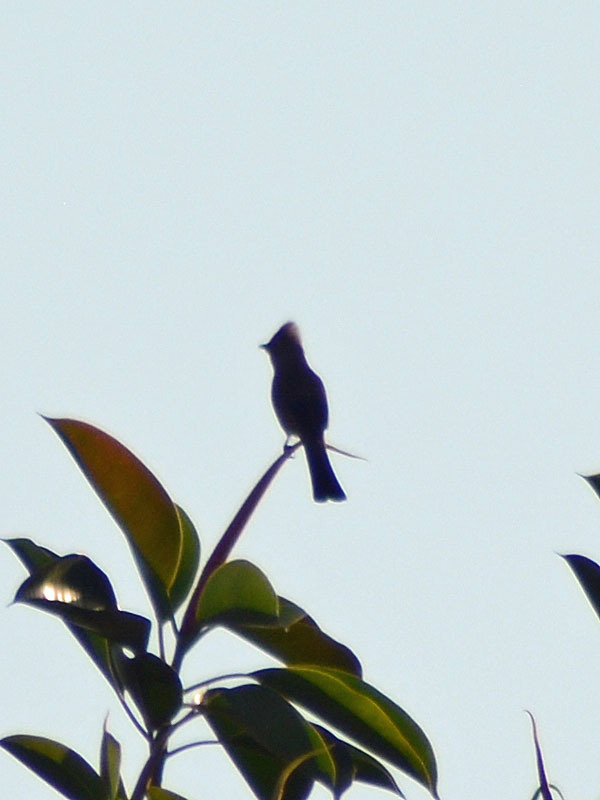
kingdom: Animalia
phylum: Chordata
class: Aves
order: Passeriformes
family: Ptilogonatidae
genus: Ptilogonys
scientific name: Ptilogonys cinereus
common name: Gray silky-flycatcher
